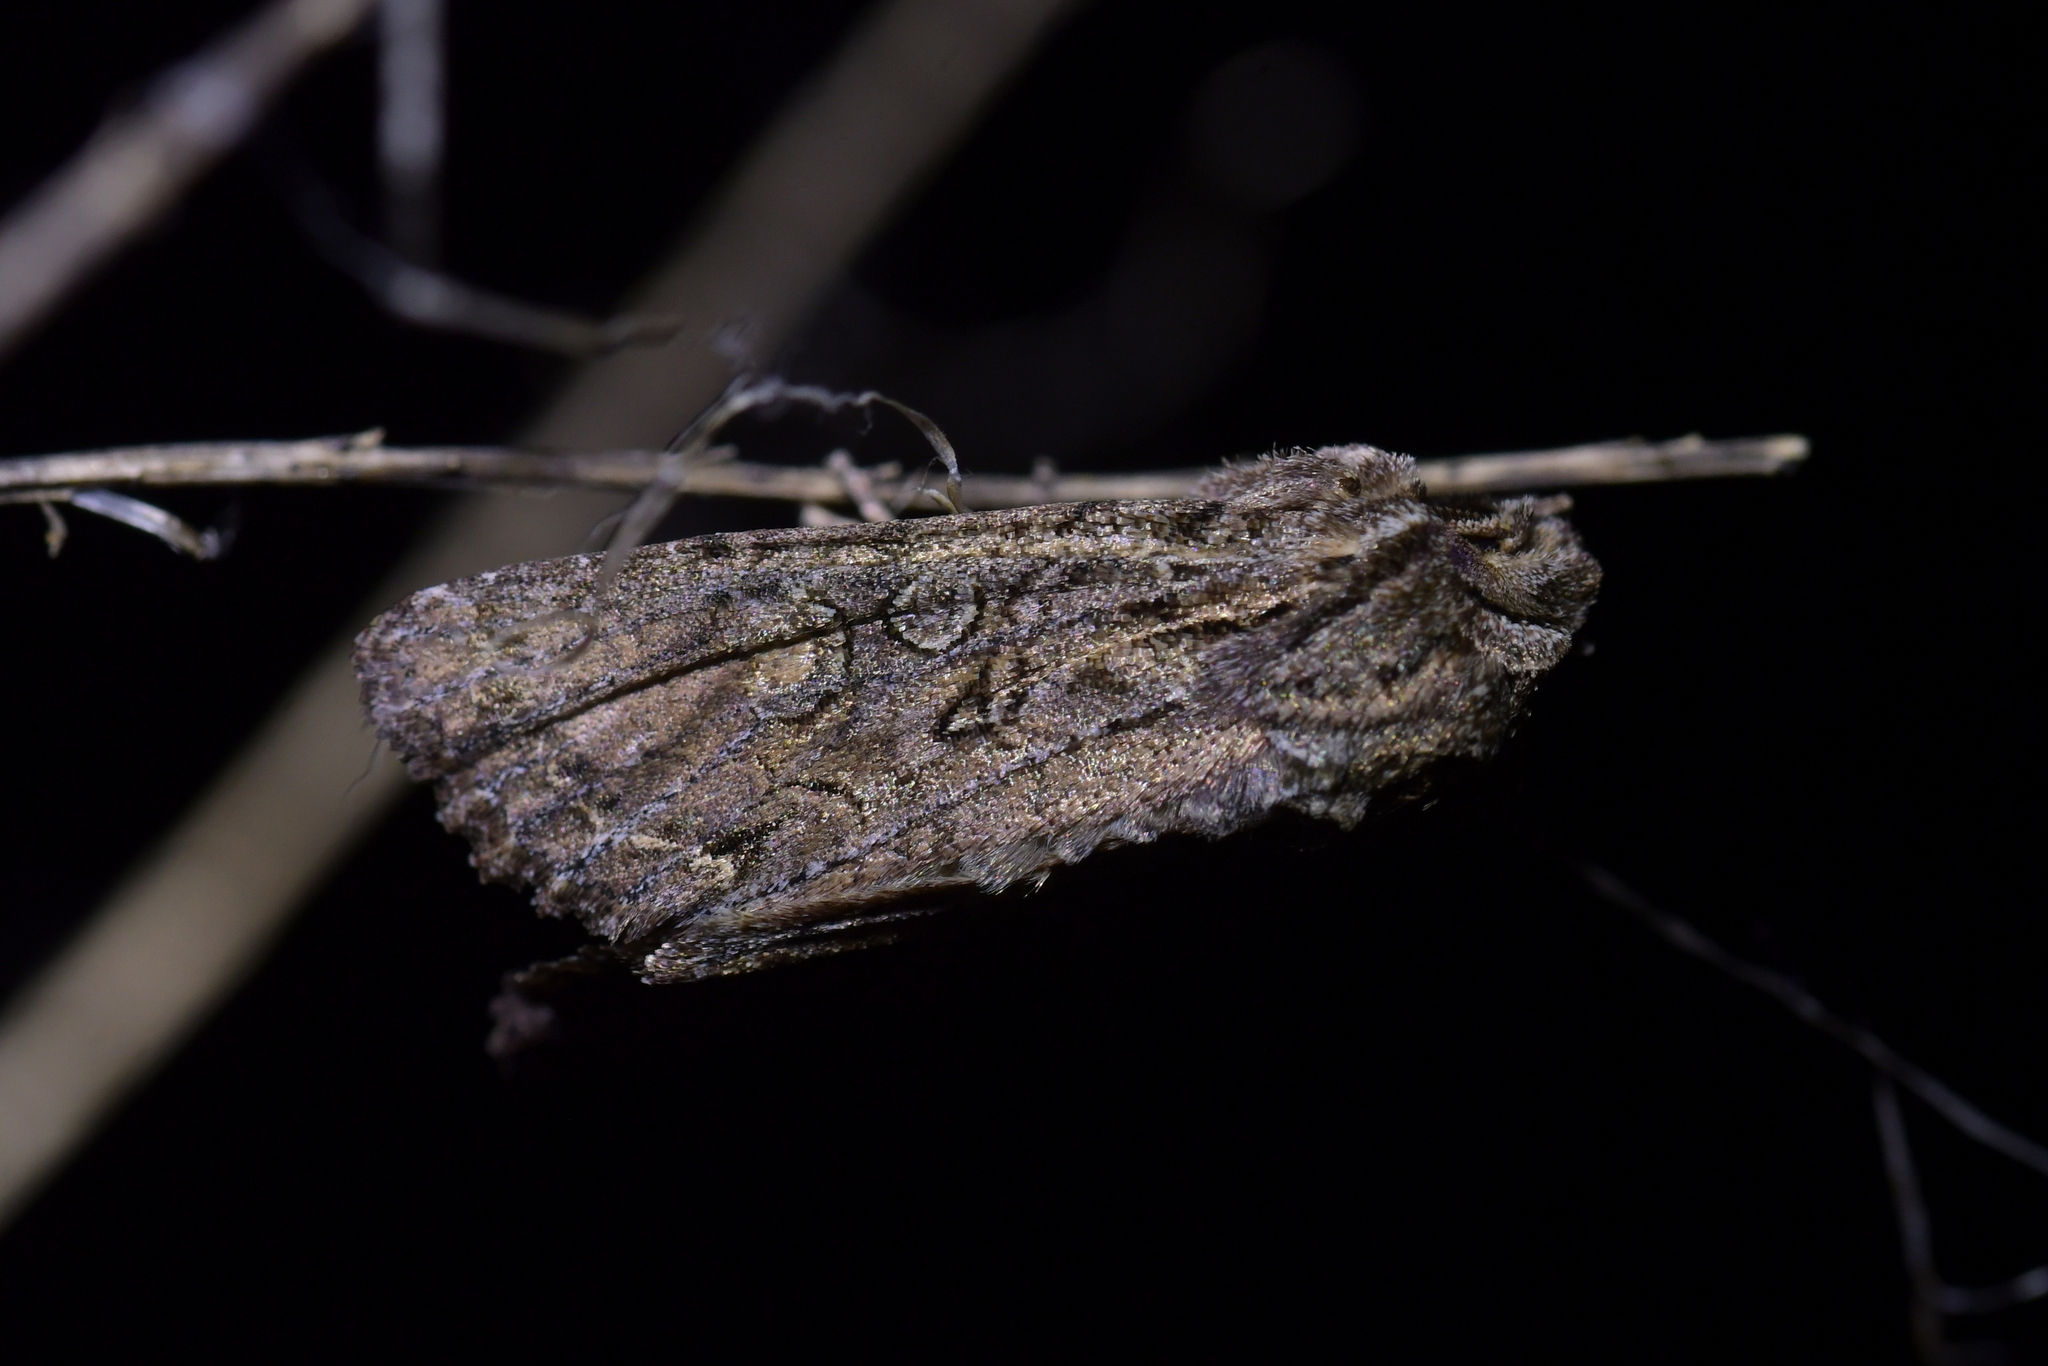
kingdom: Animalia
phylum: Arthropoda
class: Insecta
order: Lepidoptera
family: Noctuidae
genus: Ichneutica
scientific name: Ichneutica mutans
